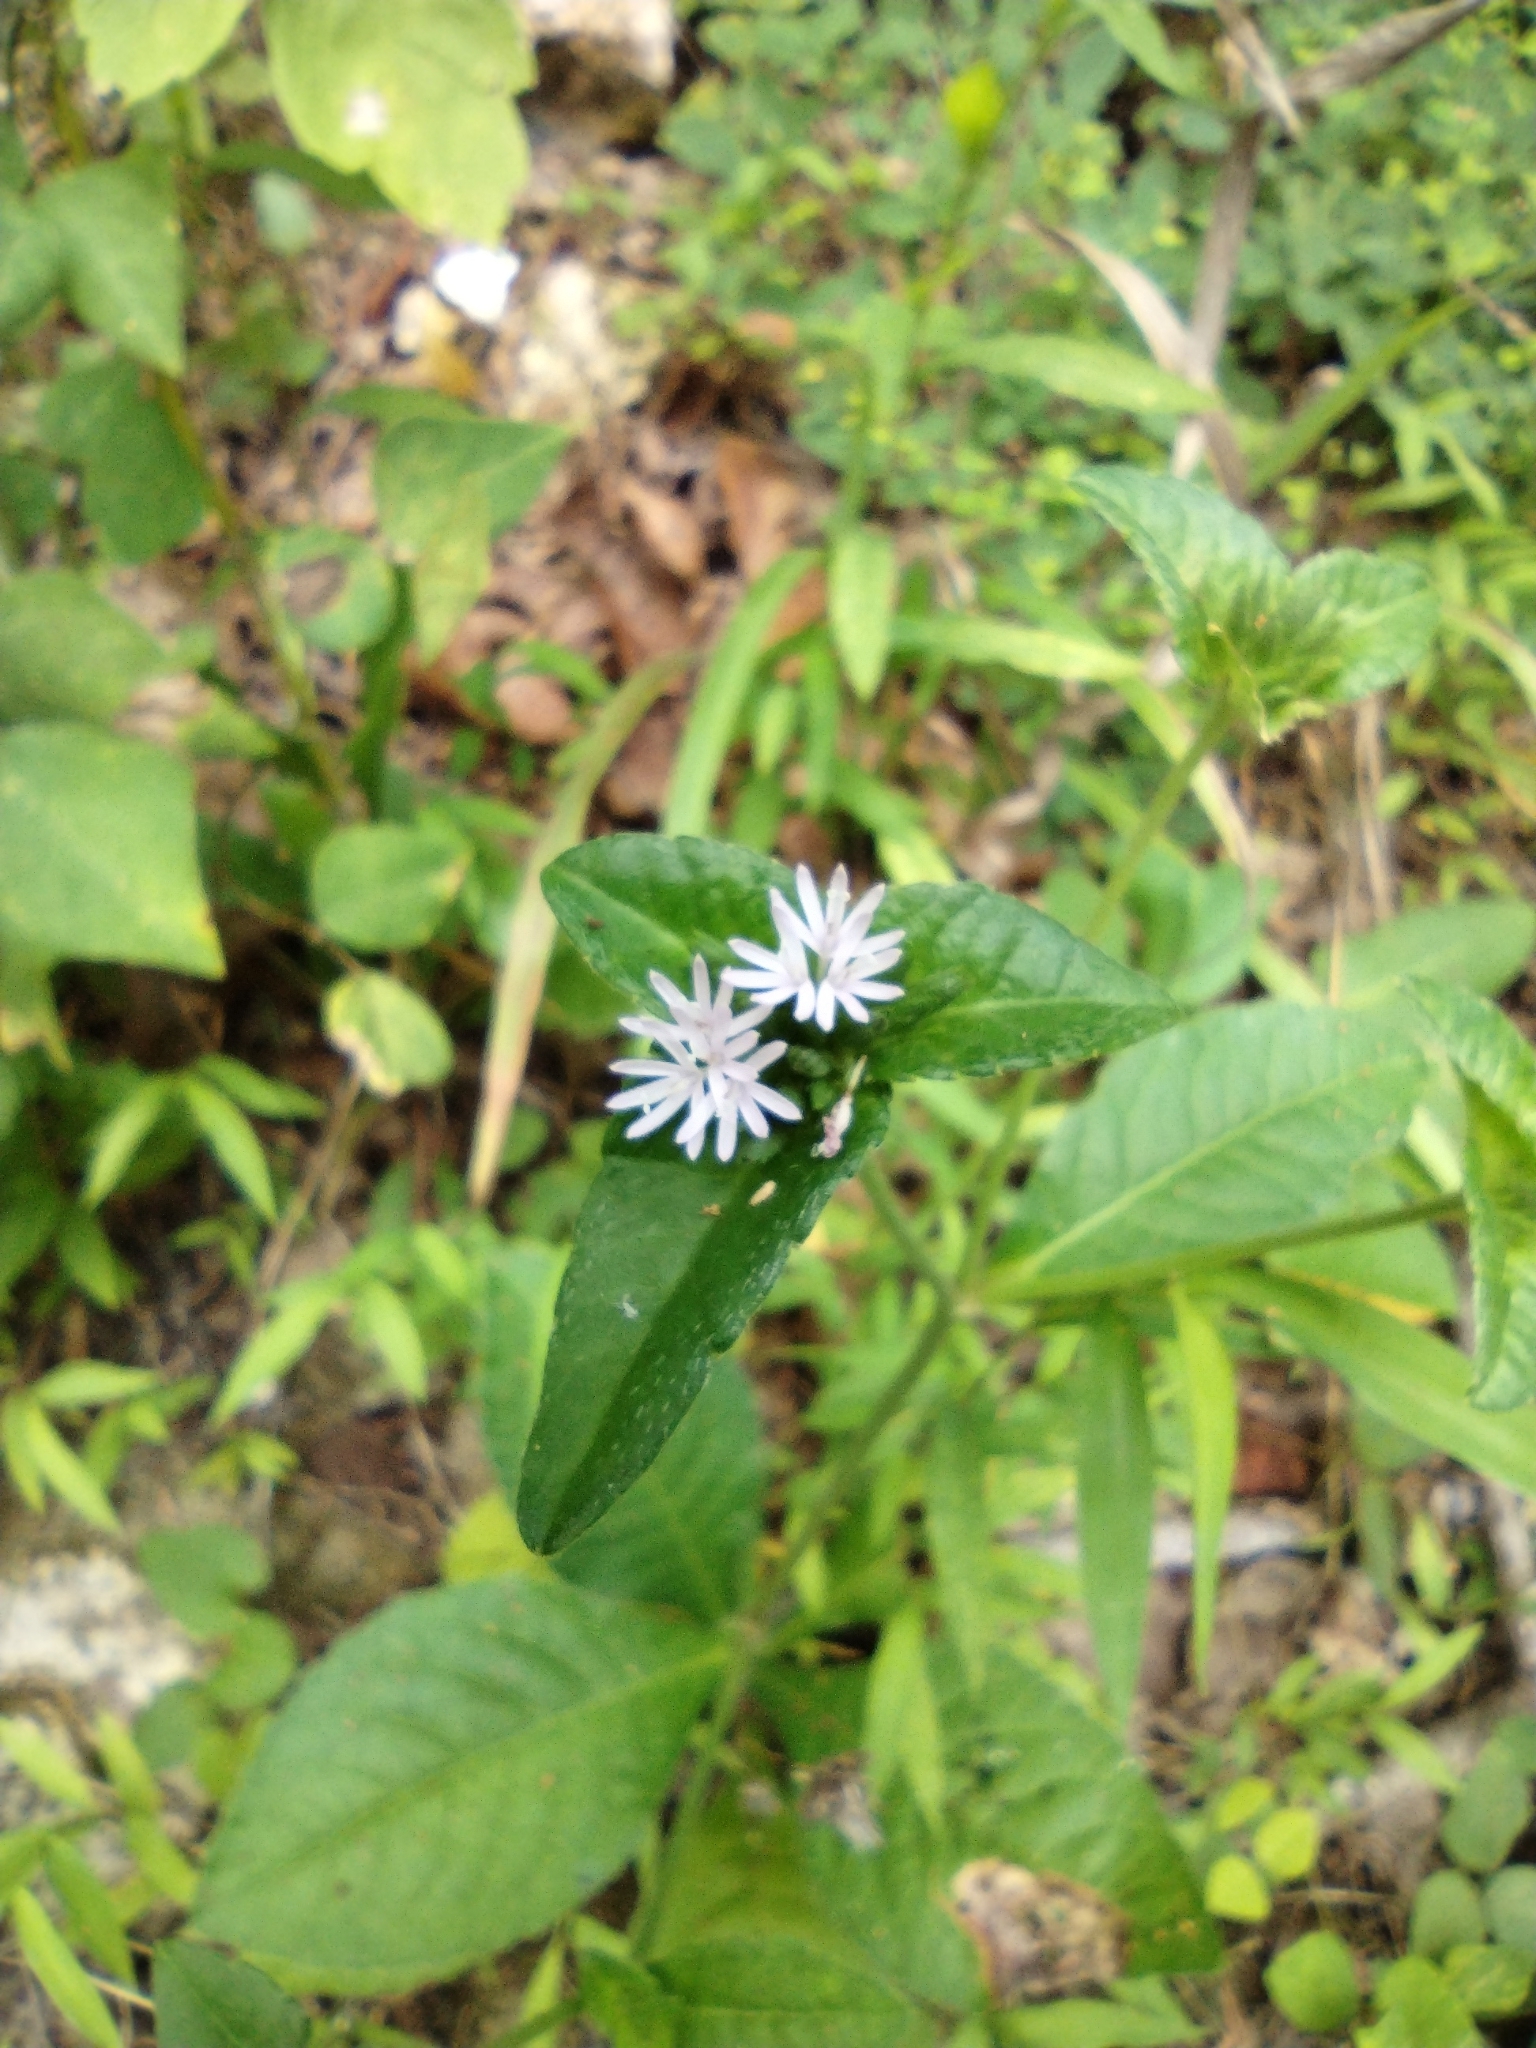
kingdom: Plantae
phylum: Tracheophyta
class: Magnoliopsida
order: Asterales
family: Asteraceae
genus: Elephantopus
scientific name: Elephantopus carolinianus
